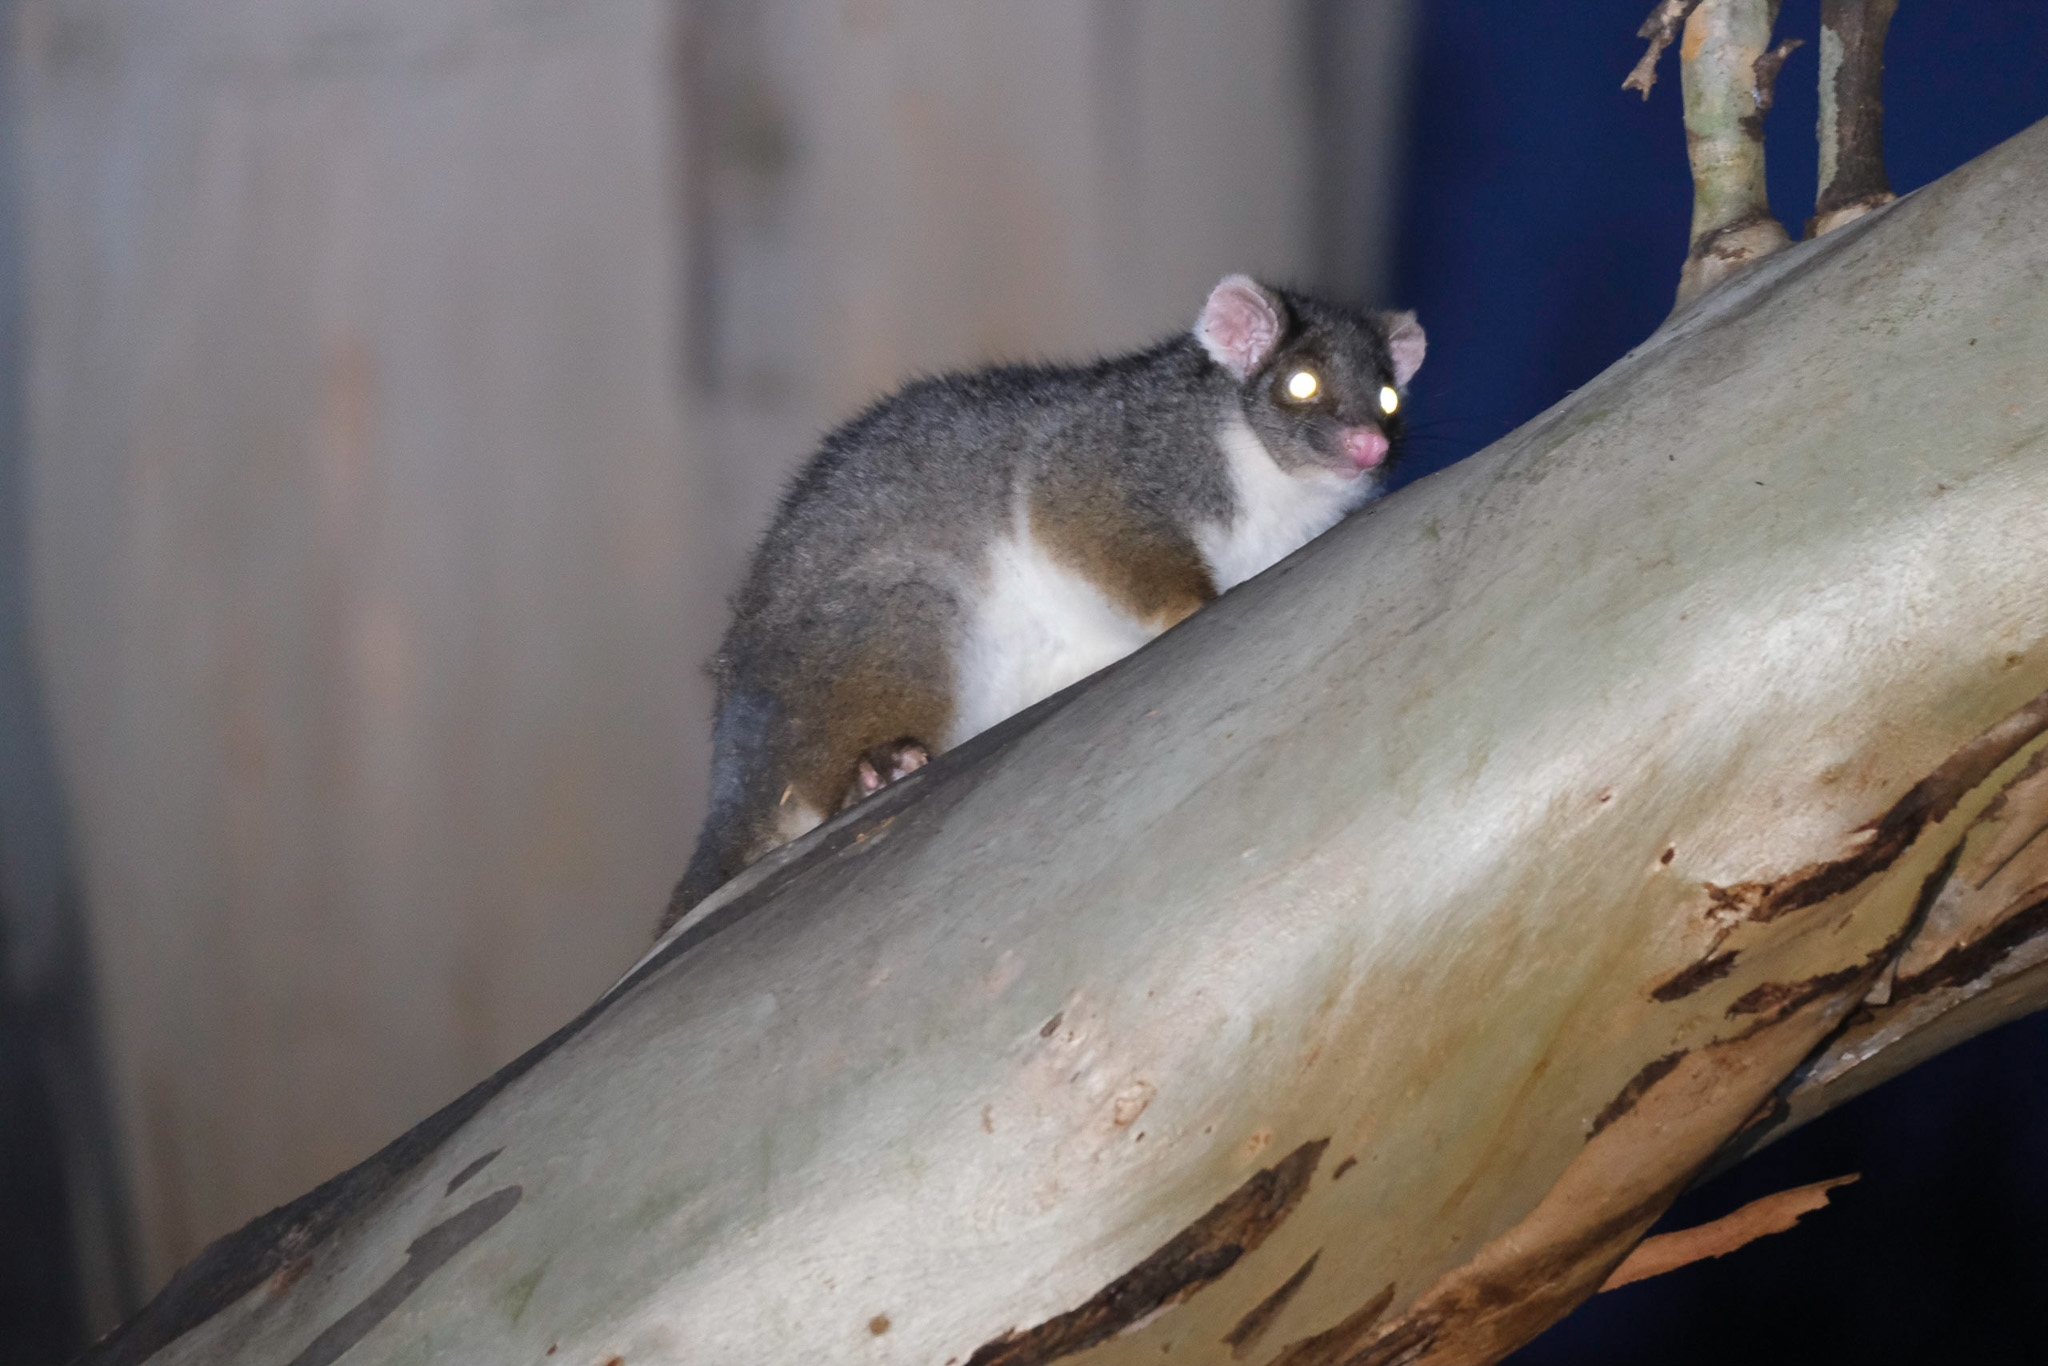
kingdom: Animalia
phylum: Chordata
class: Mammalia
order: Diprotodontia
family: Pseudocheiridae
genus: Pseudocheirus
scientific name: Pseudocheirus peregrinus
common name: Common ringtail possum
